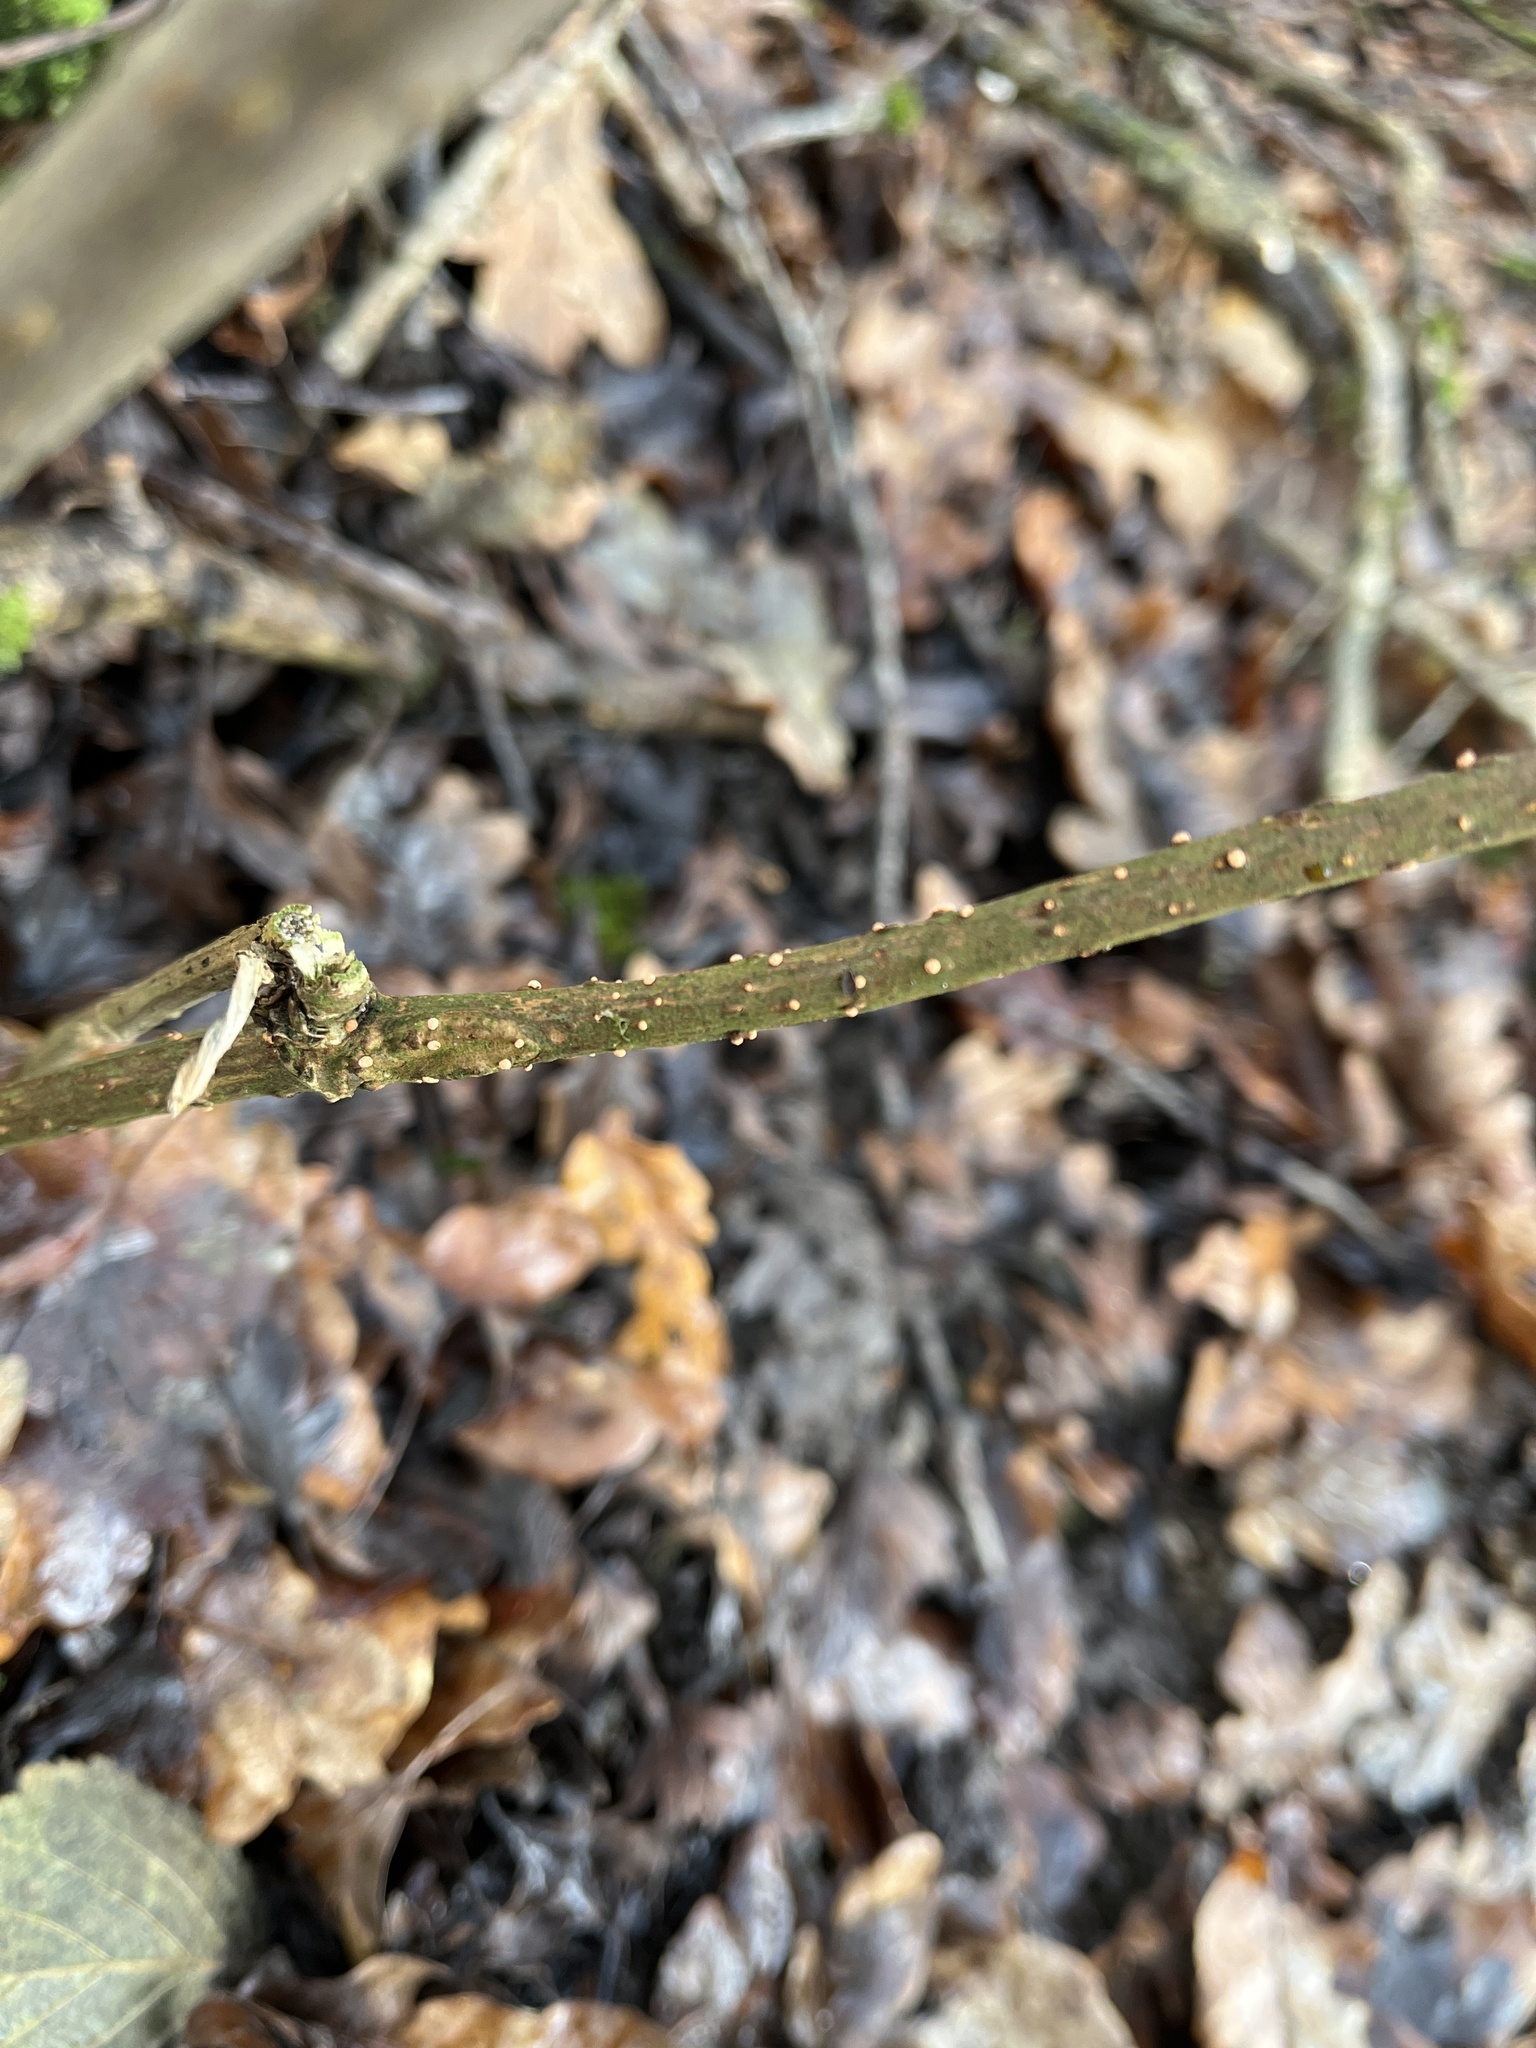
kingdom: Fungi
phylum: Ascomycota
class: Sordariomycetes
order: Hypocreales
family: Nectriaceae
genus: Nectria
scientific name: Nectria cinnabarina
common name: Coral spot
